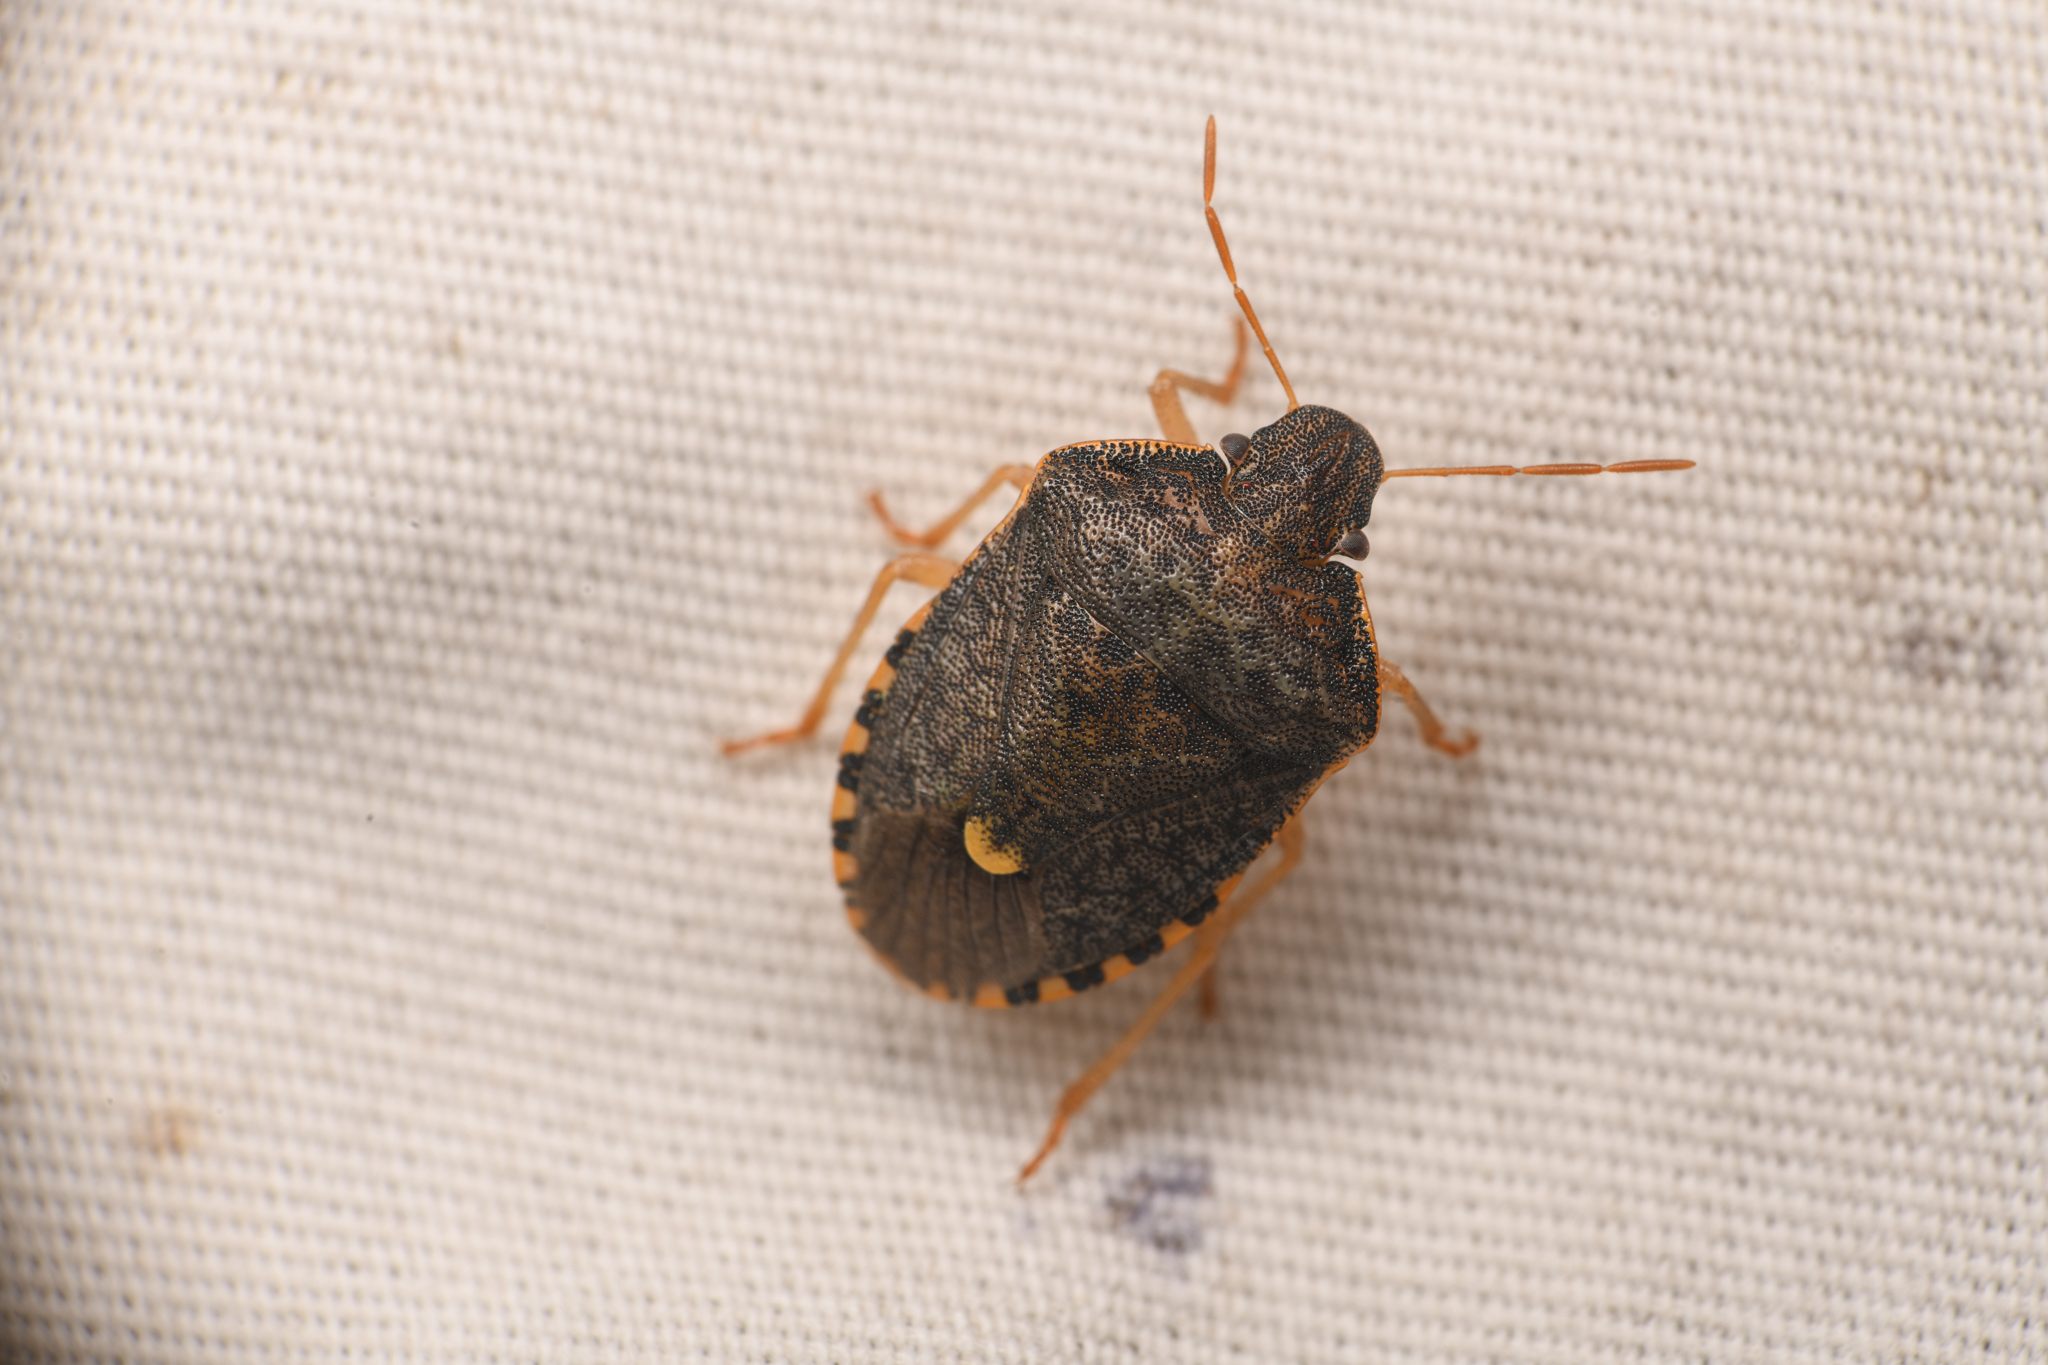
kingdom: Animalia
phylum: Arthropoda
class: Insecta
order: Hemiptera
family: Pentatomidae
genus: Holcostethus
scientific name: Holcostethus abbreviatus
